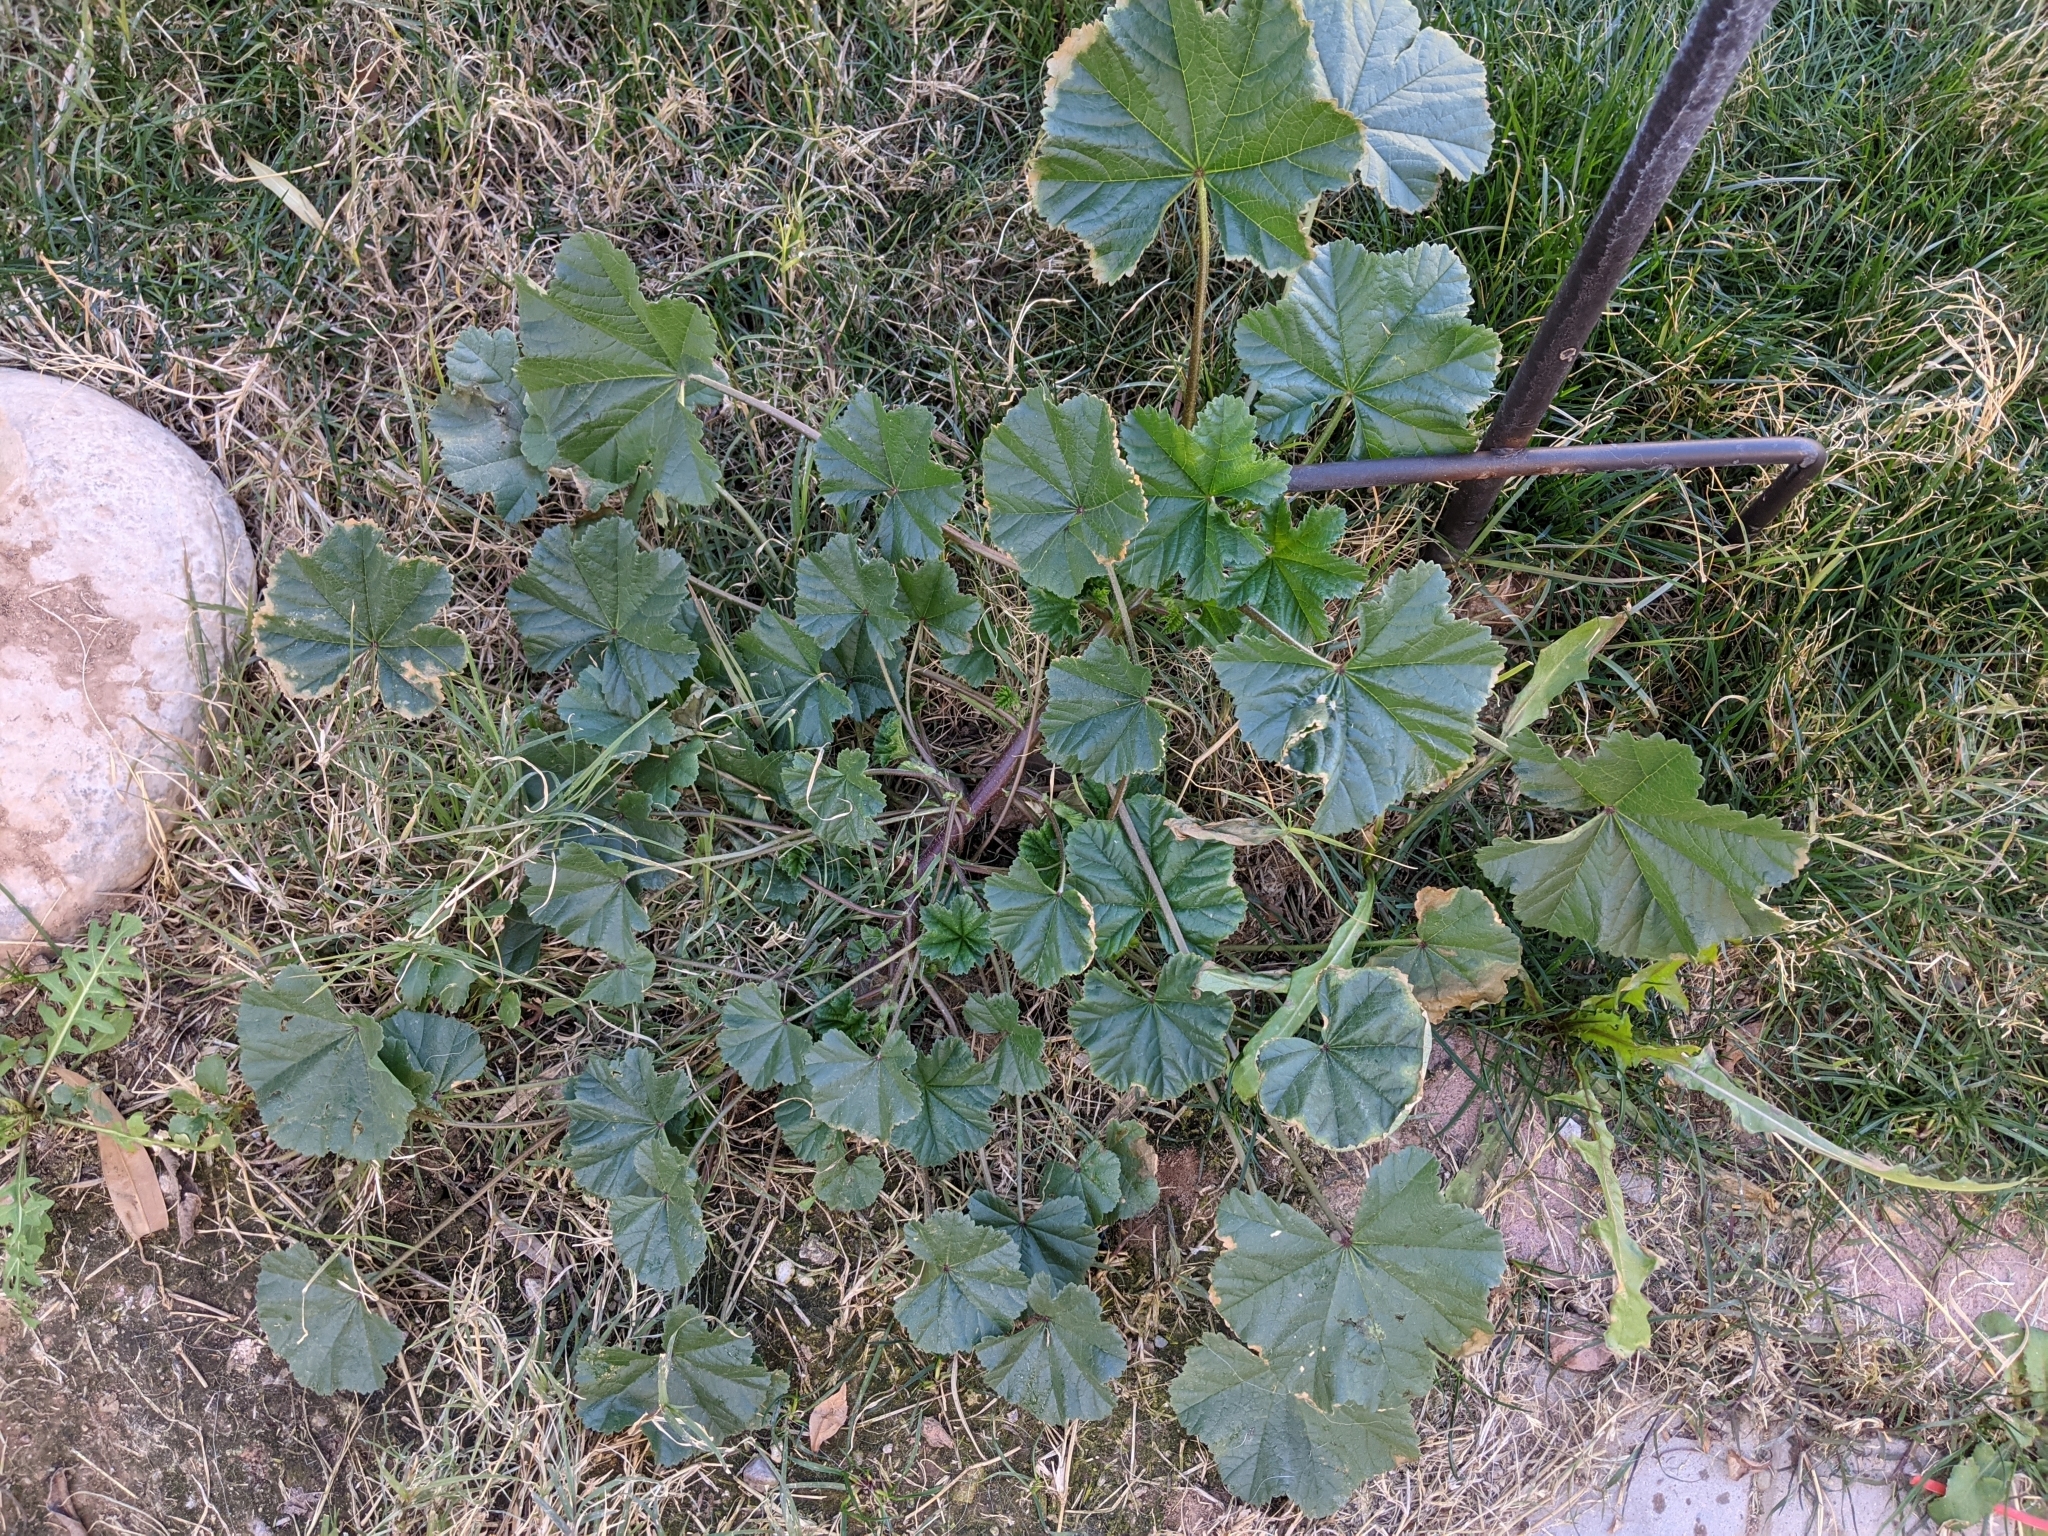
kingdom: Plantae
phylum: Tracheophyta
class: Magnoliopsida
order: Malvales
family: Malvaceae
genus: Malva
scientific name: Malva parviflora
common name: Least mallow
